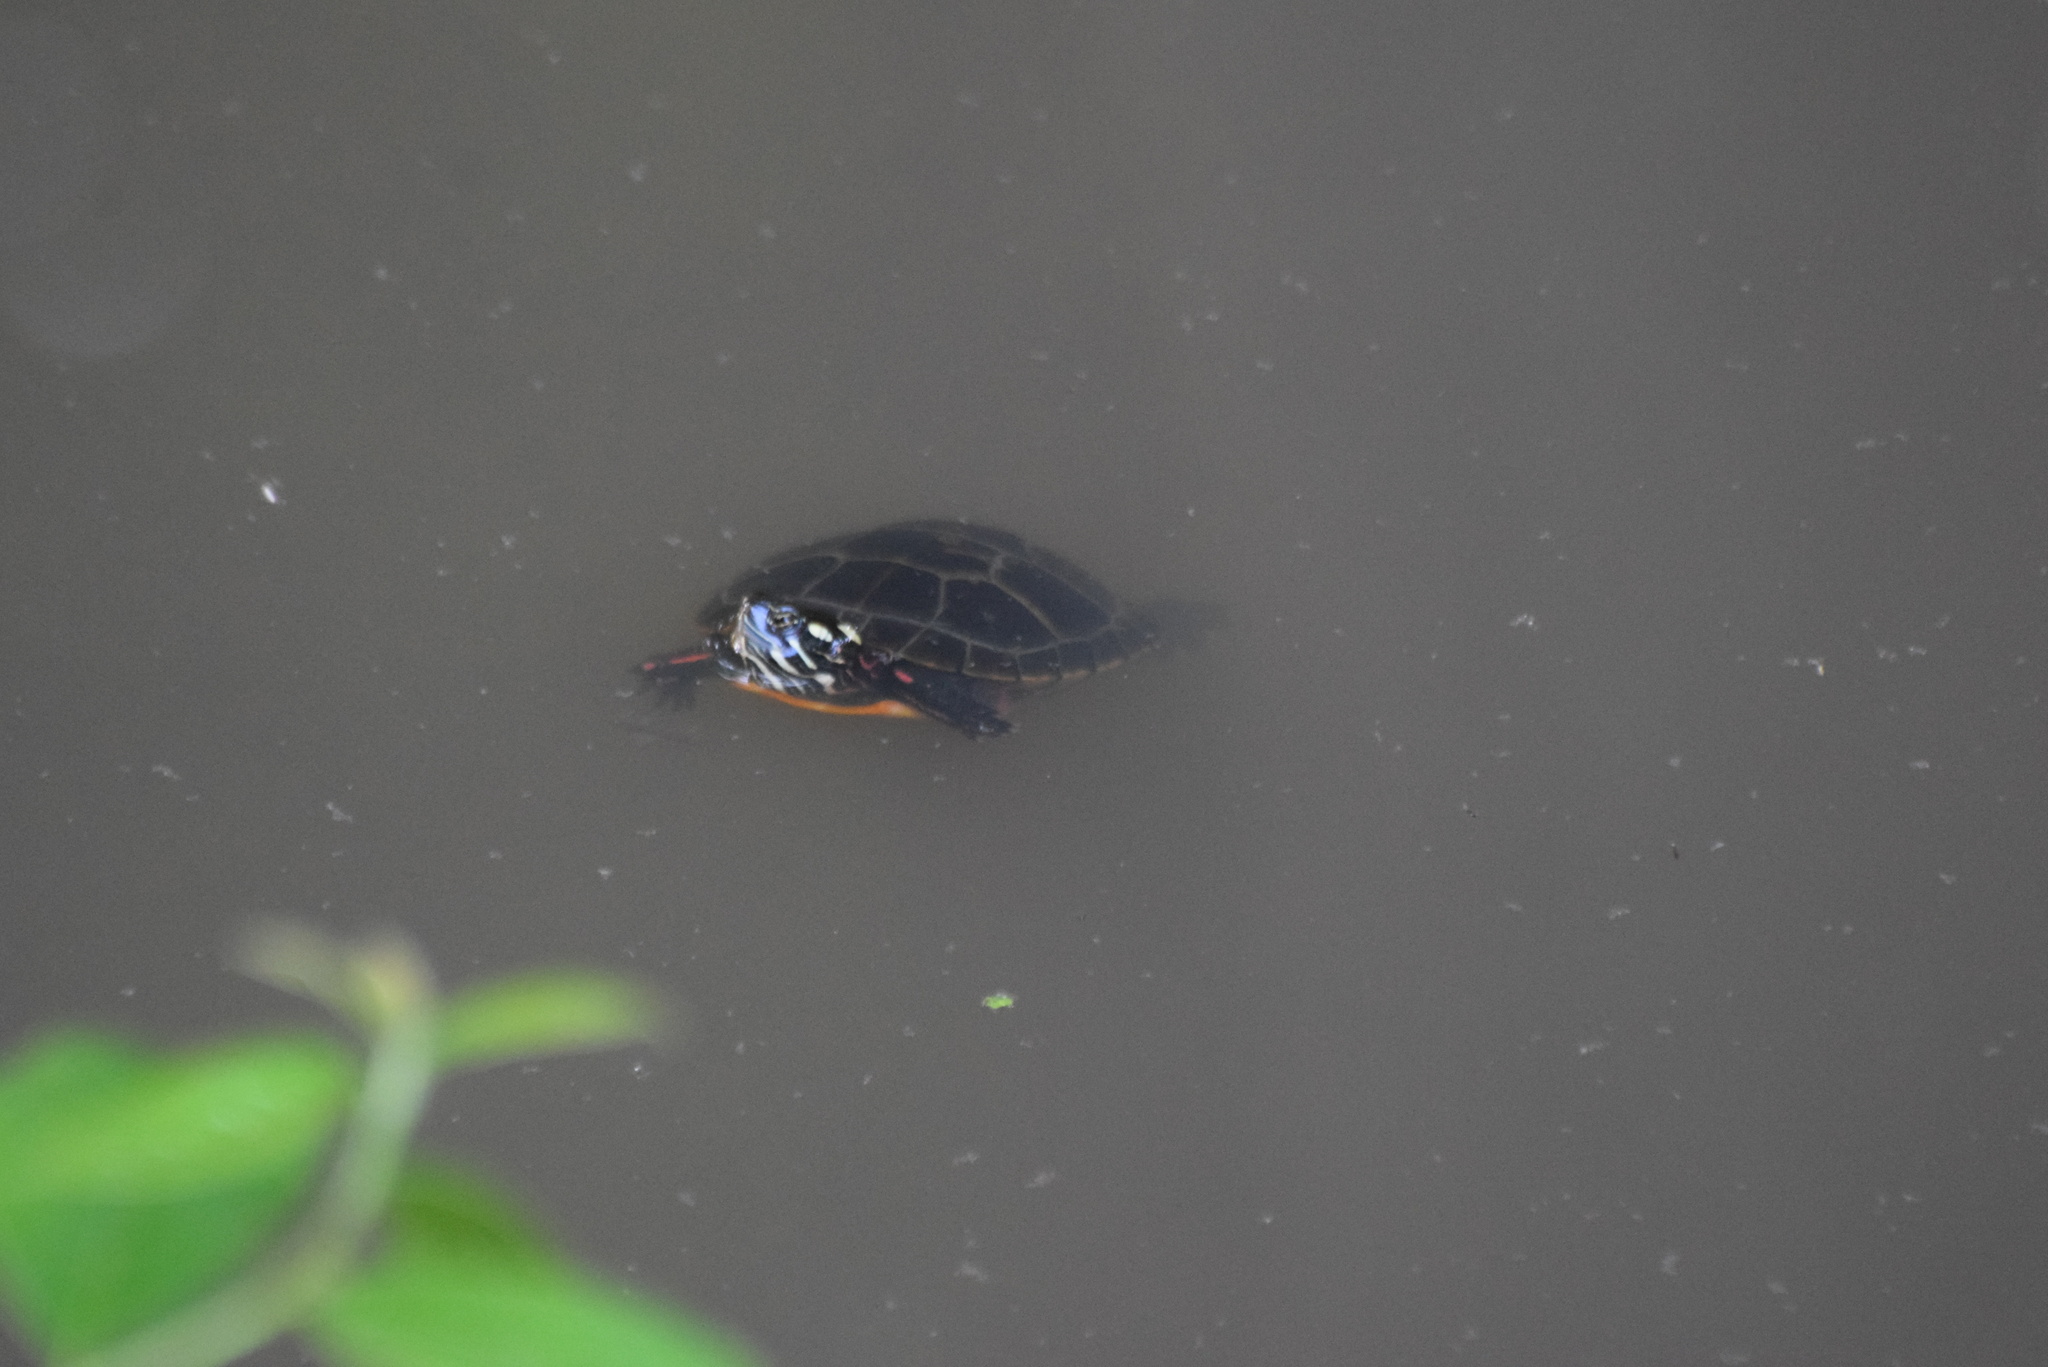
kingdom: Animalia
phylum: Chordata
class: Testudines
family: Emydidae
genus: Chrysemys
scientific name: Chrysemys picta
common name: Painted turtle
